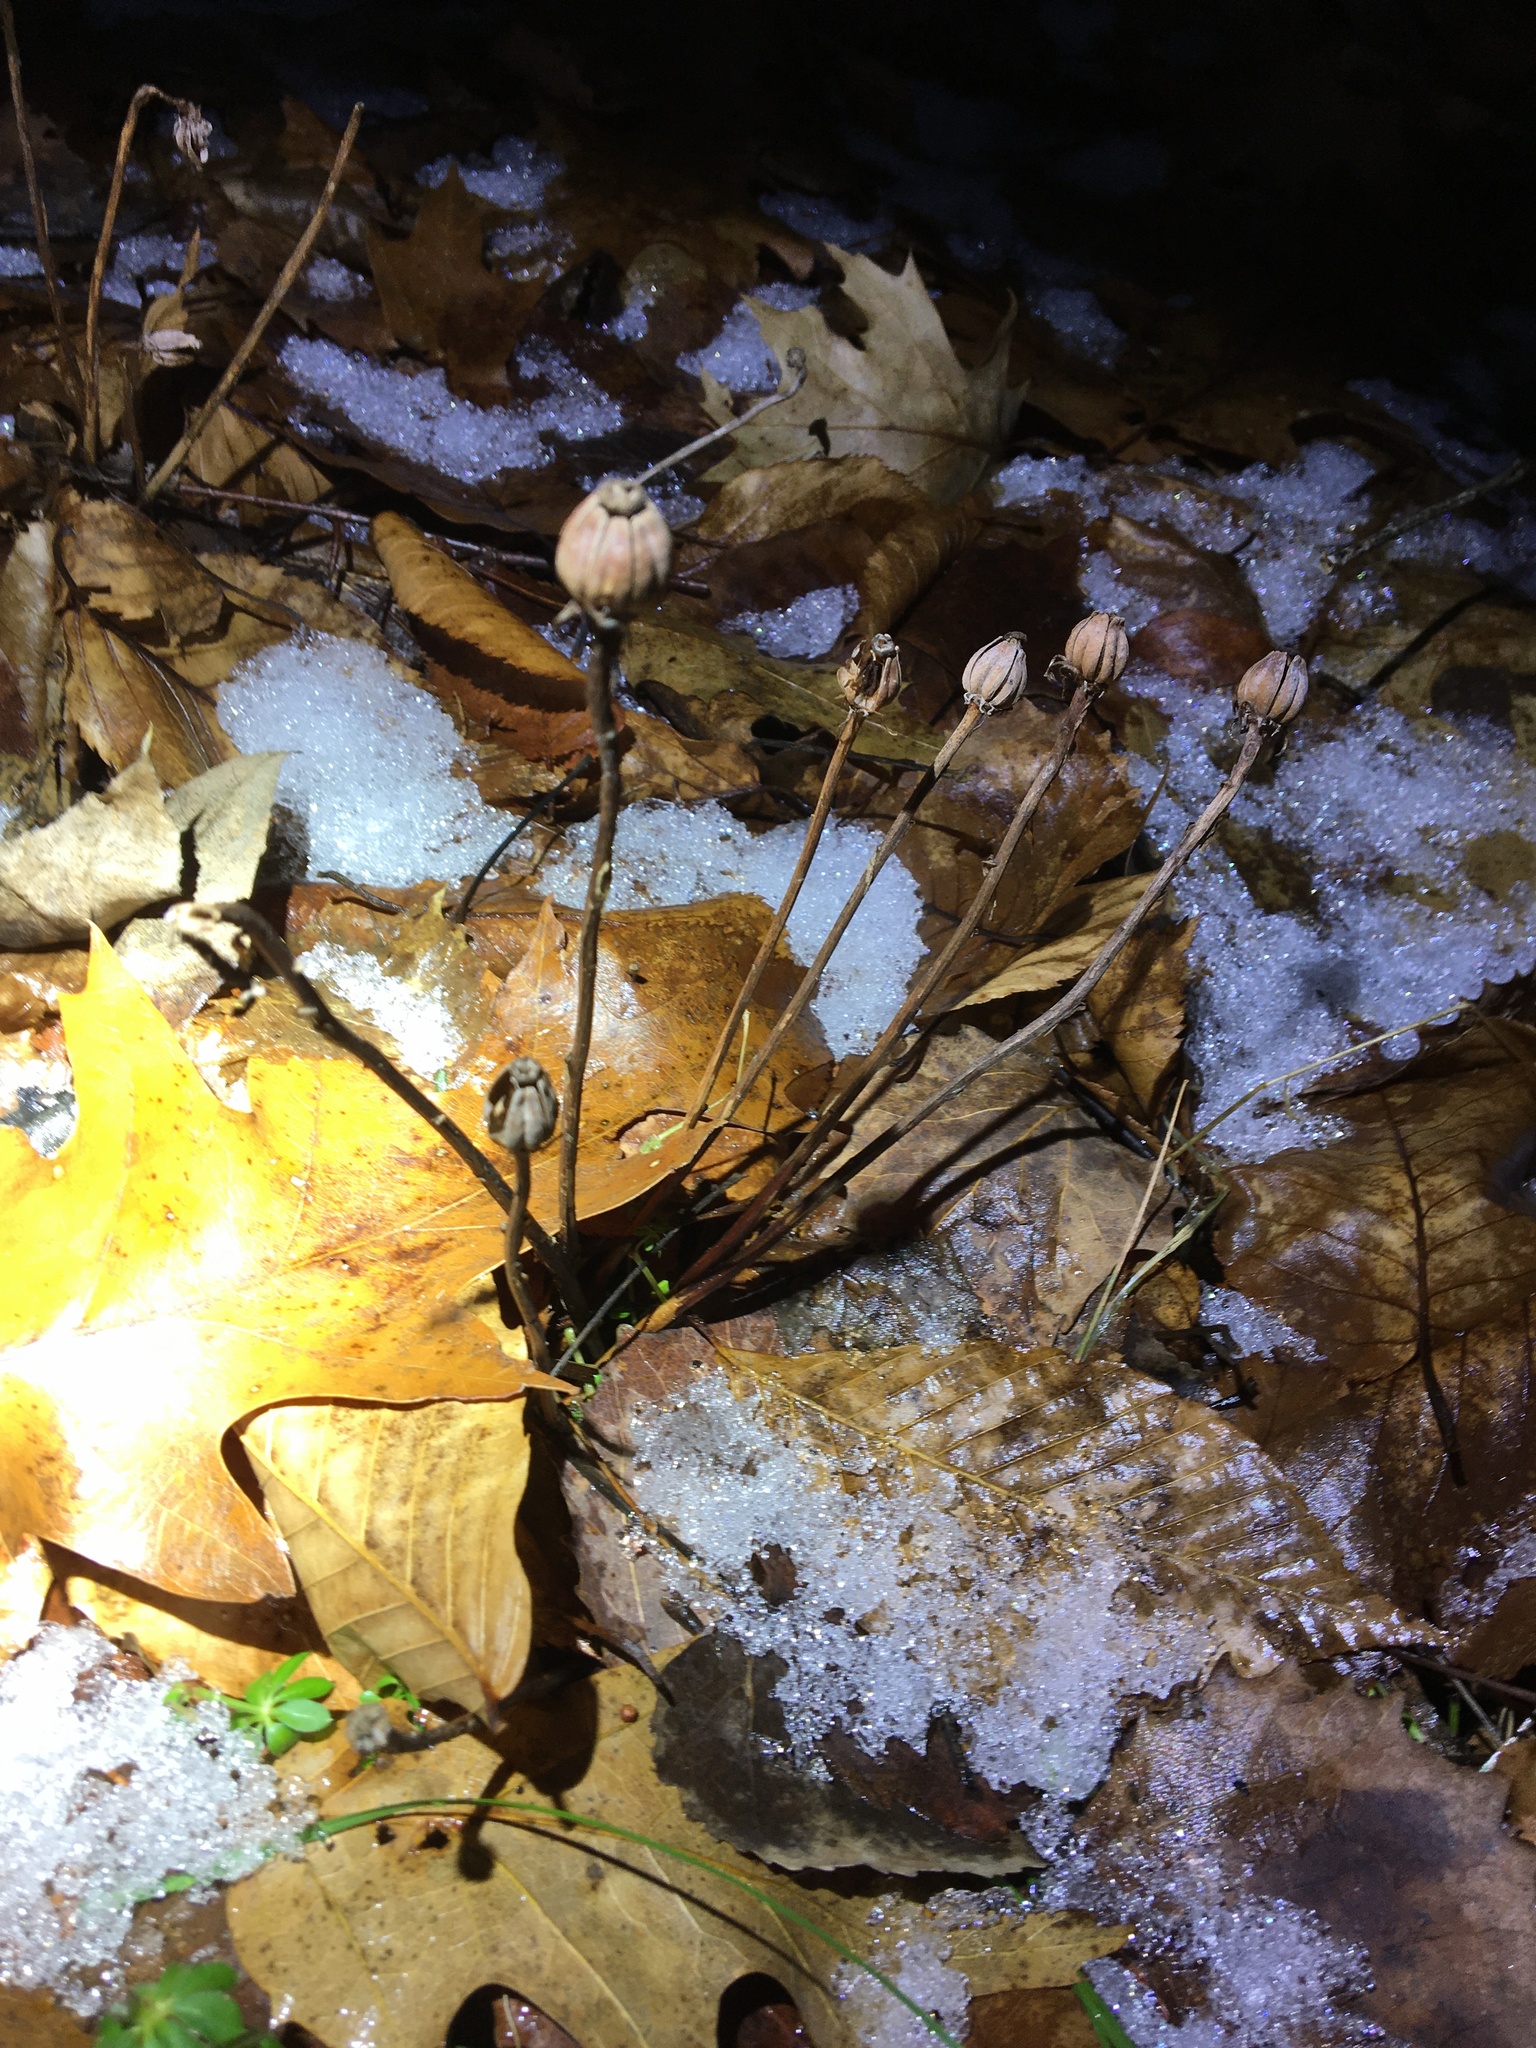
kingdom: Plantae
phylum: Tracheophyta
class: Magnoliopsida
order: Ericales
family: Ericaceae
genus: Monotropa
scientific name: Monotropa uniflora
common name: Convulsion root
